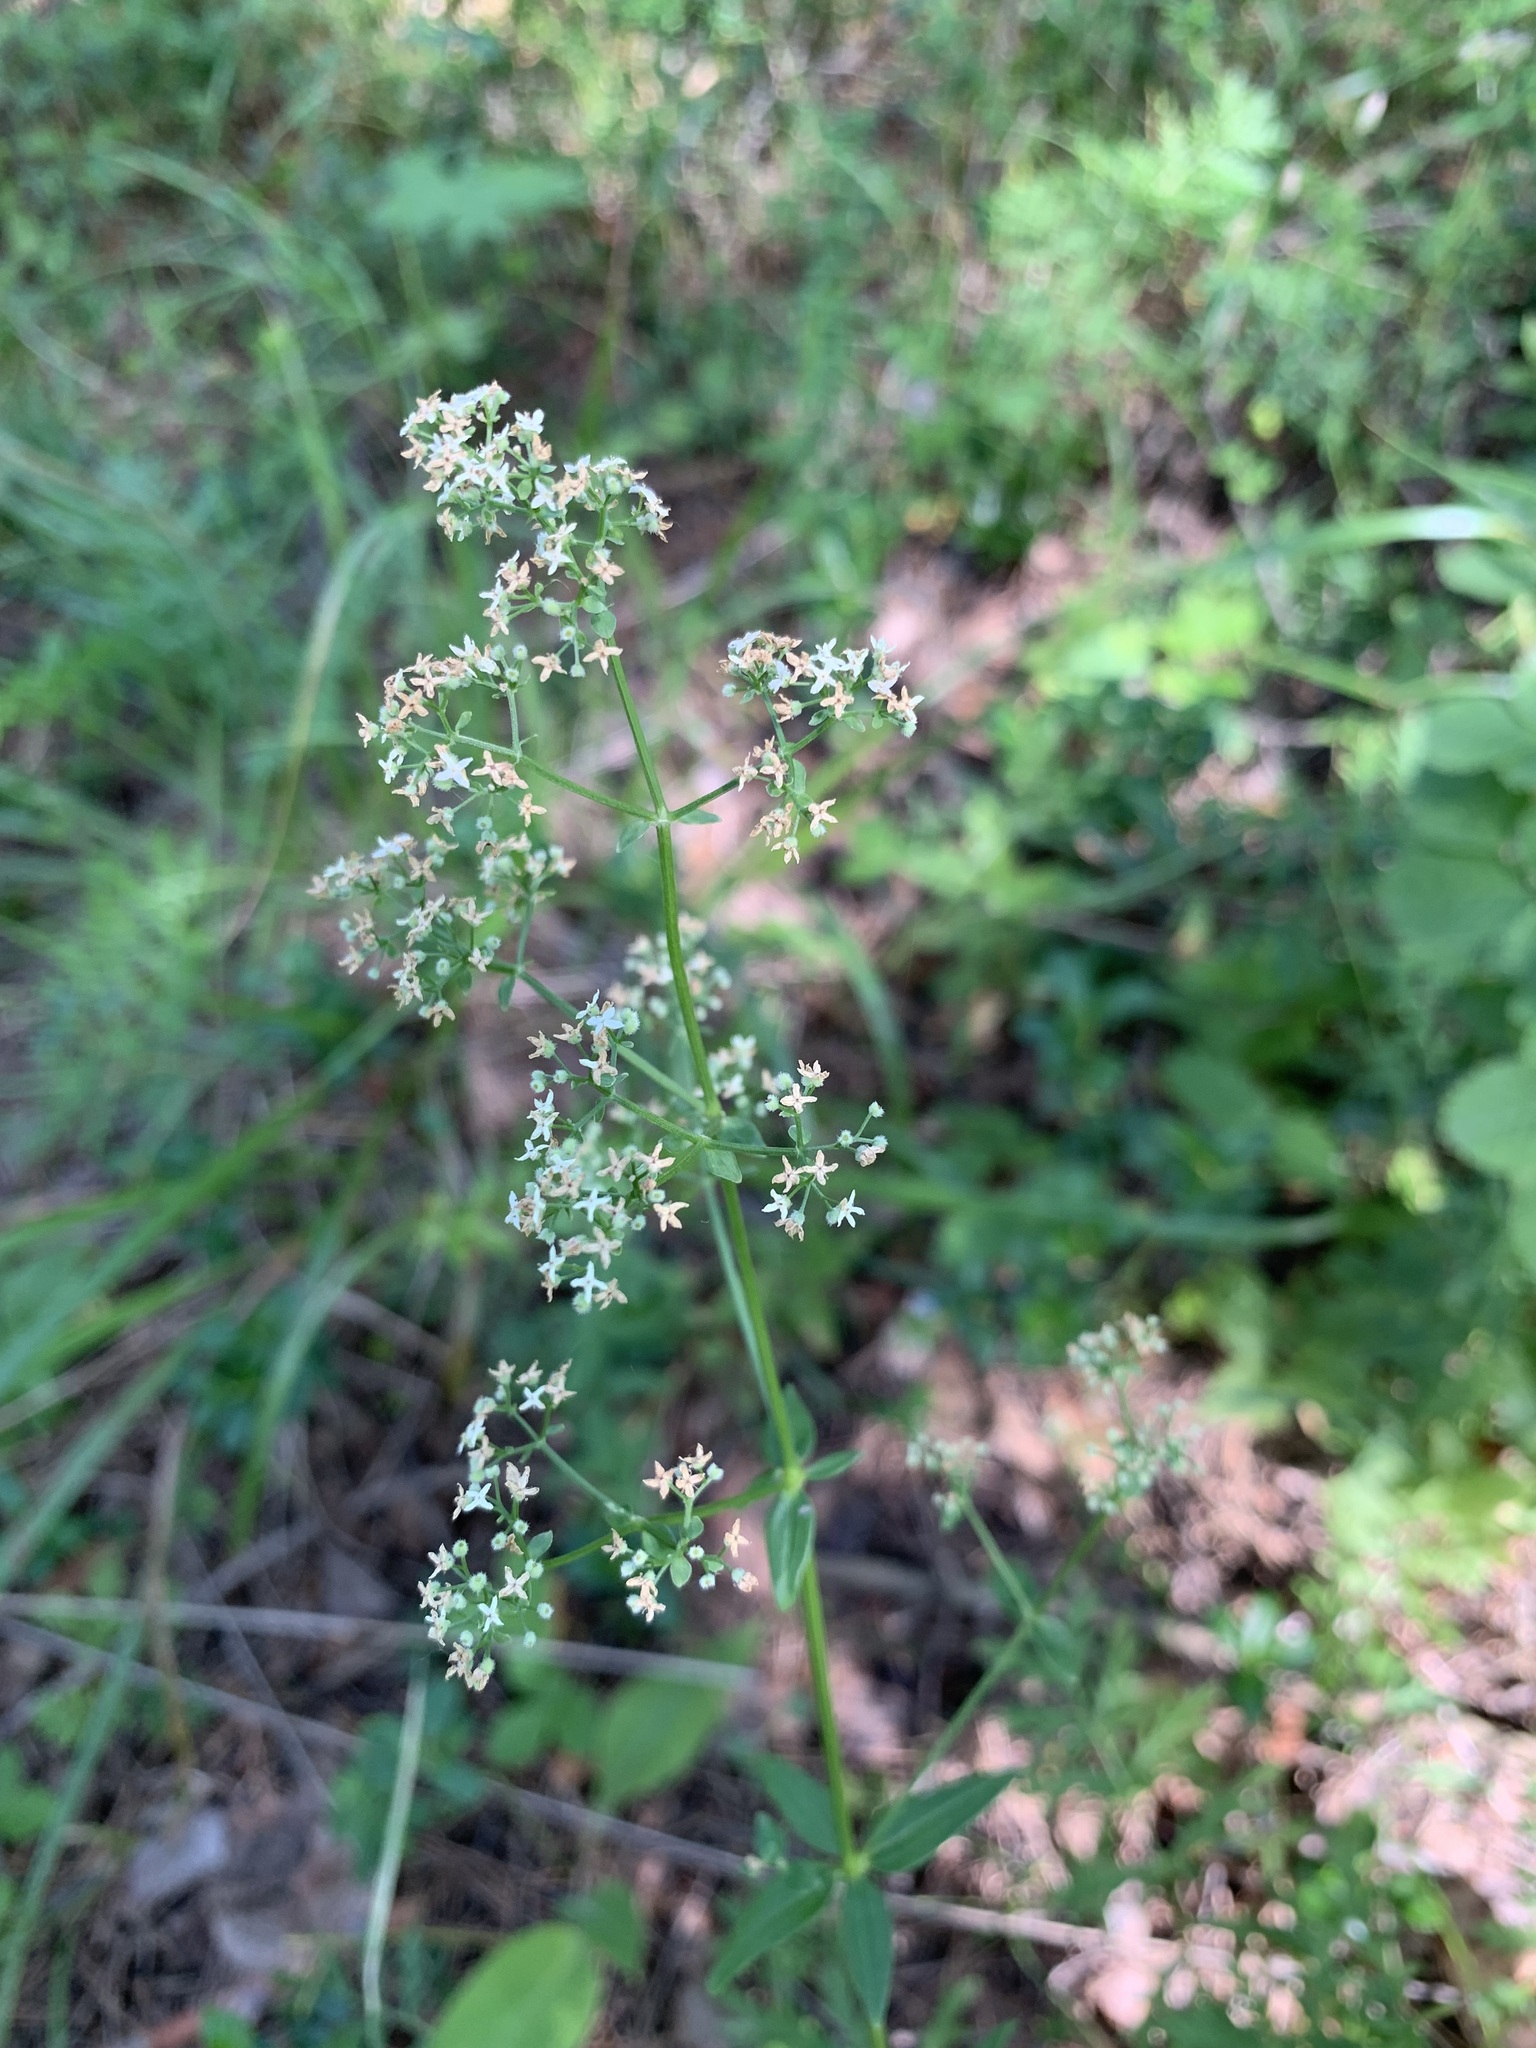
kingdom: Plantae
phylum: Tracheophyta
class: Magnoliopsida
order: Gentianales
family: Rubiaceae
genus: Galium
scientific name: Galium boreale
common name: Northern bedstraw
